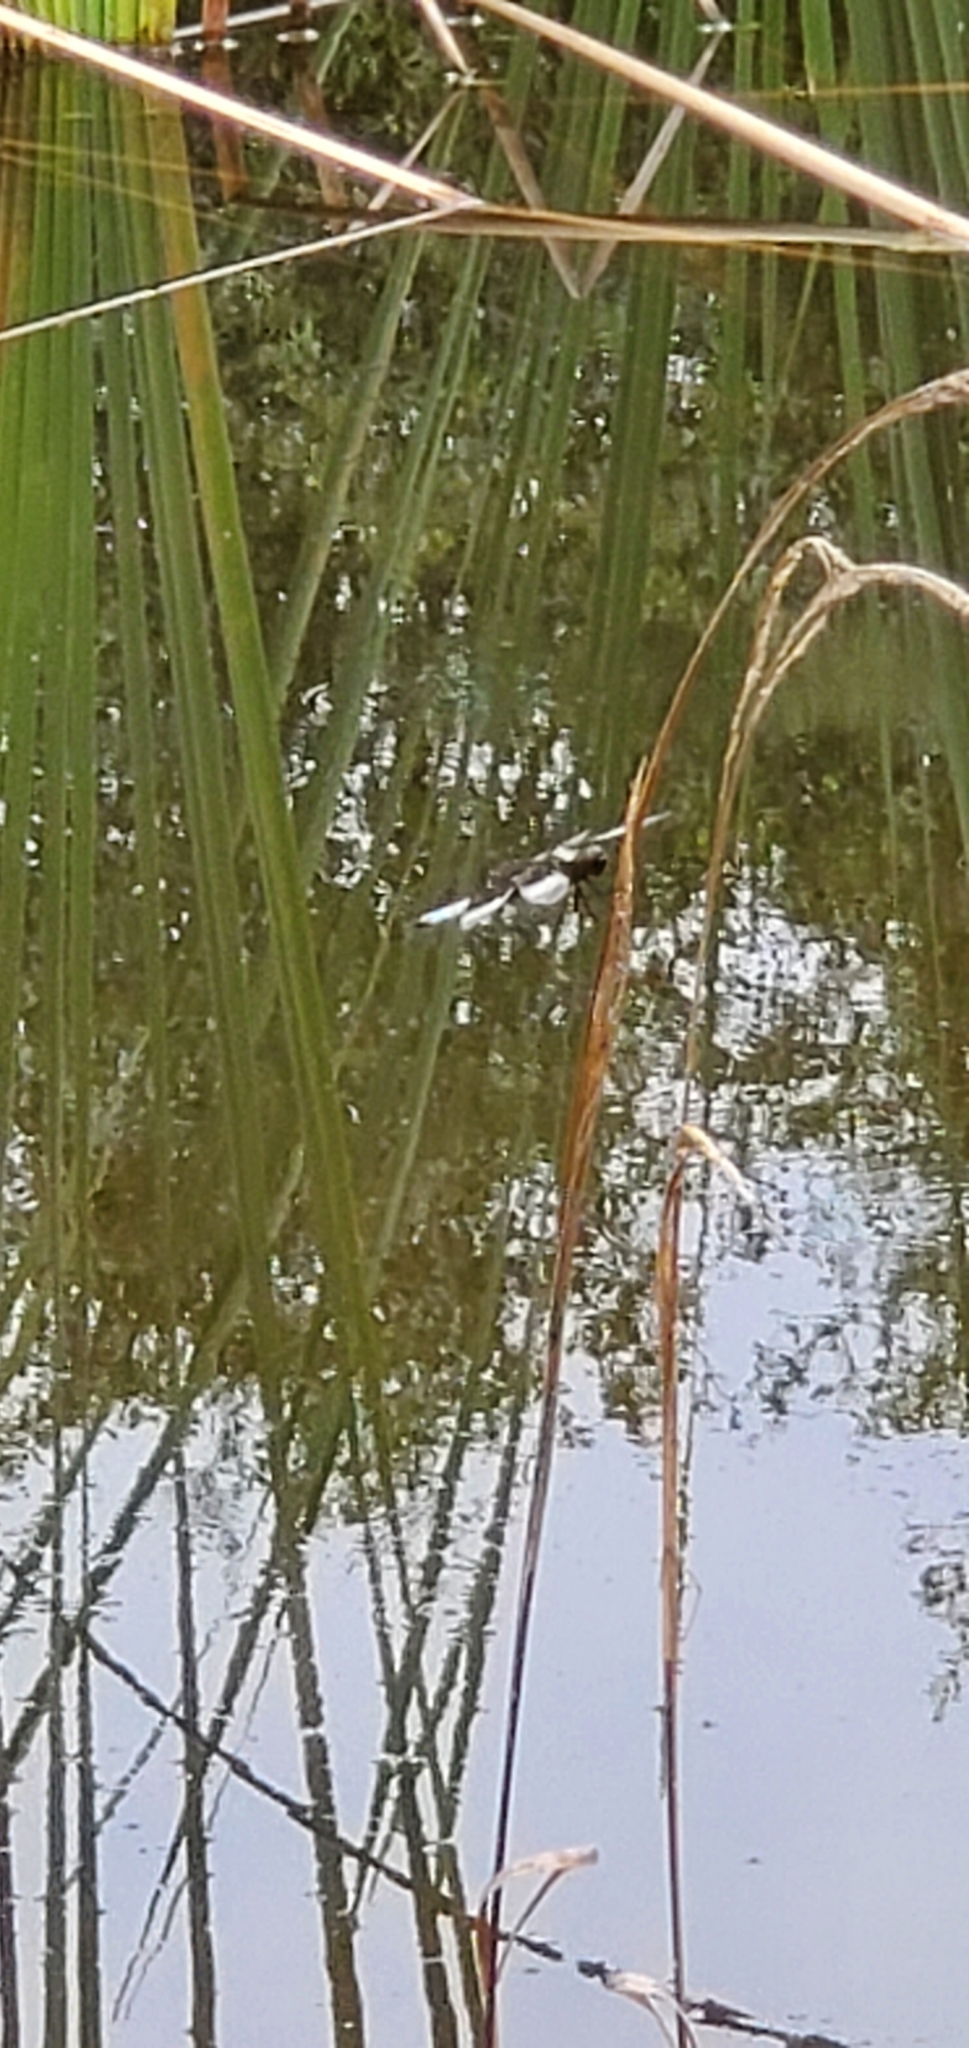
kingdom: Animalia
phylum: Arthropoda
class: Insecta
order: Odonata
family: Libellulidae
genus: Libellula
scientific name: Libellula luctuosa
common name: Widow skimmer
